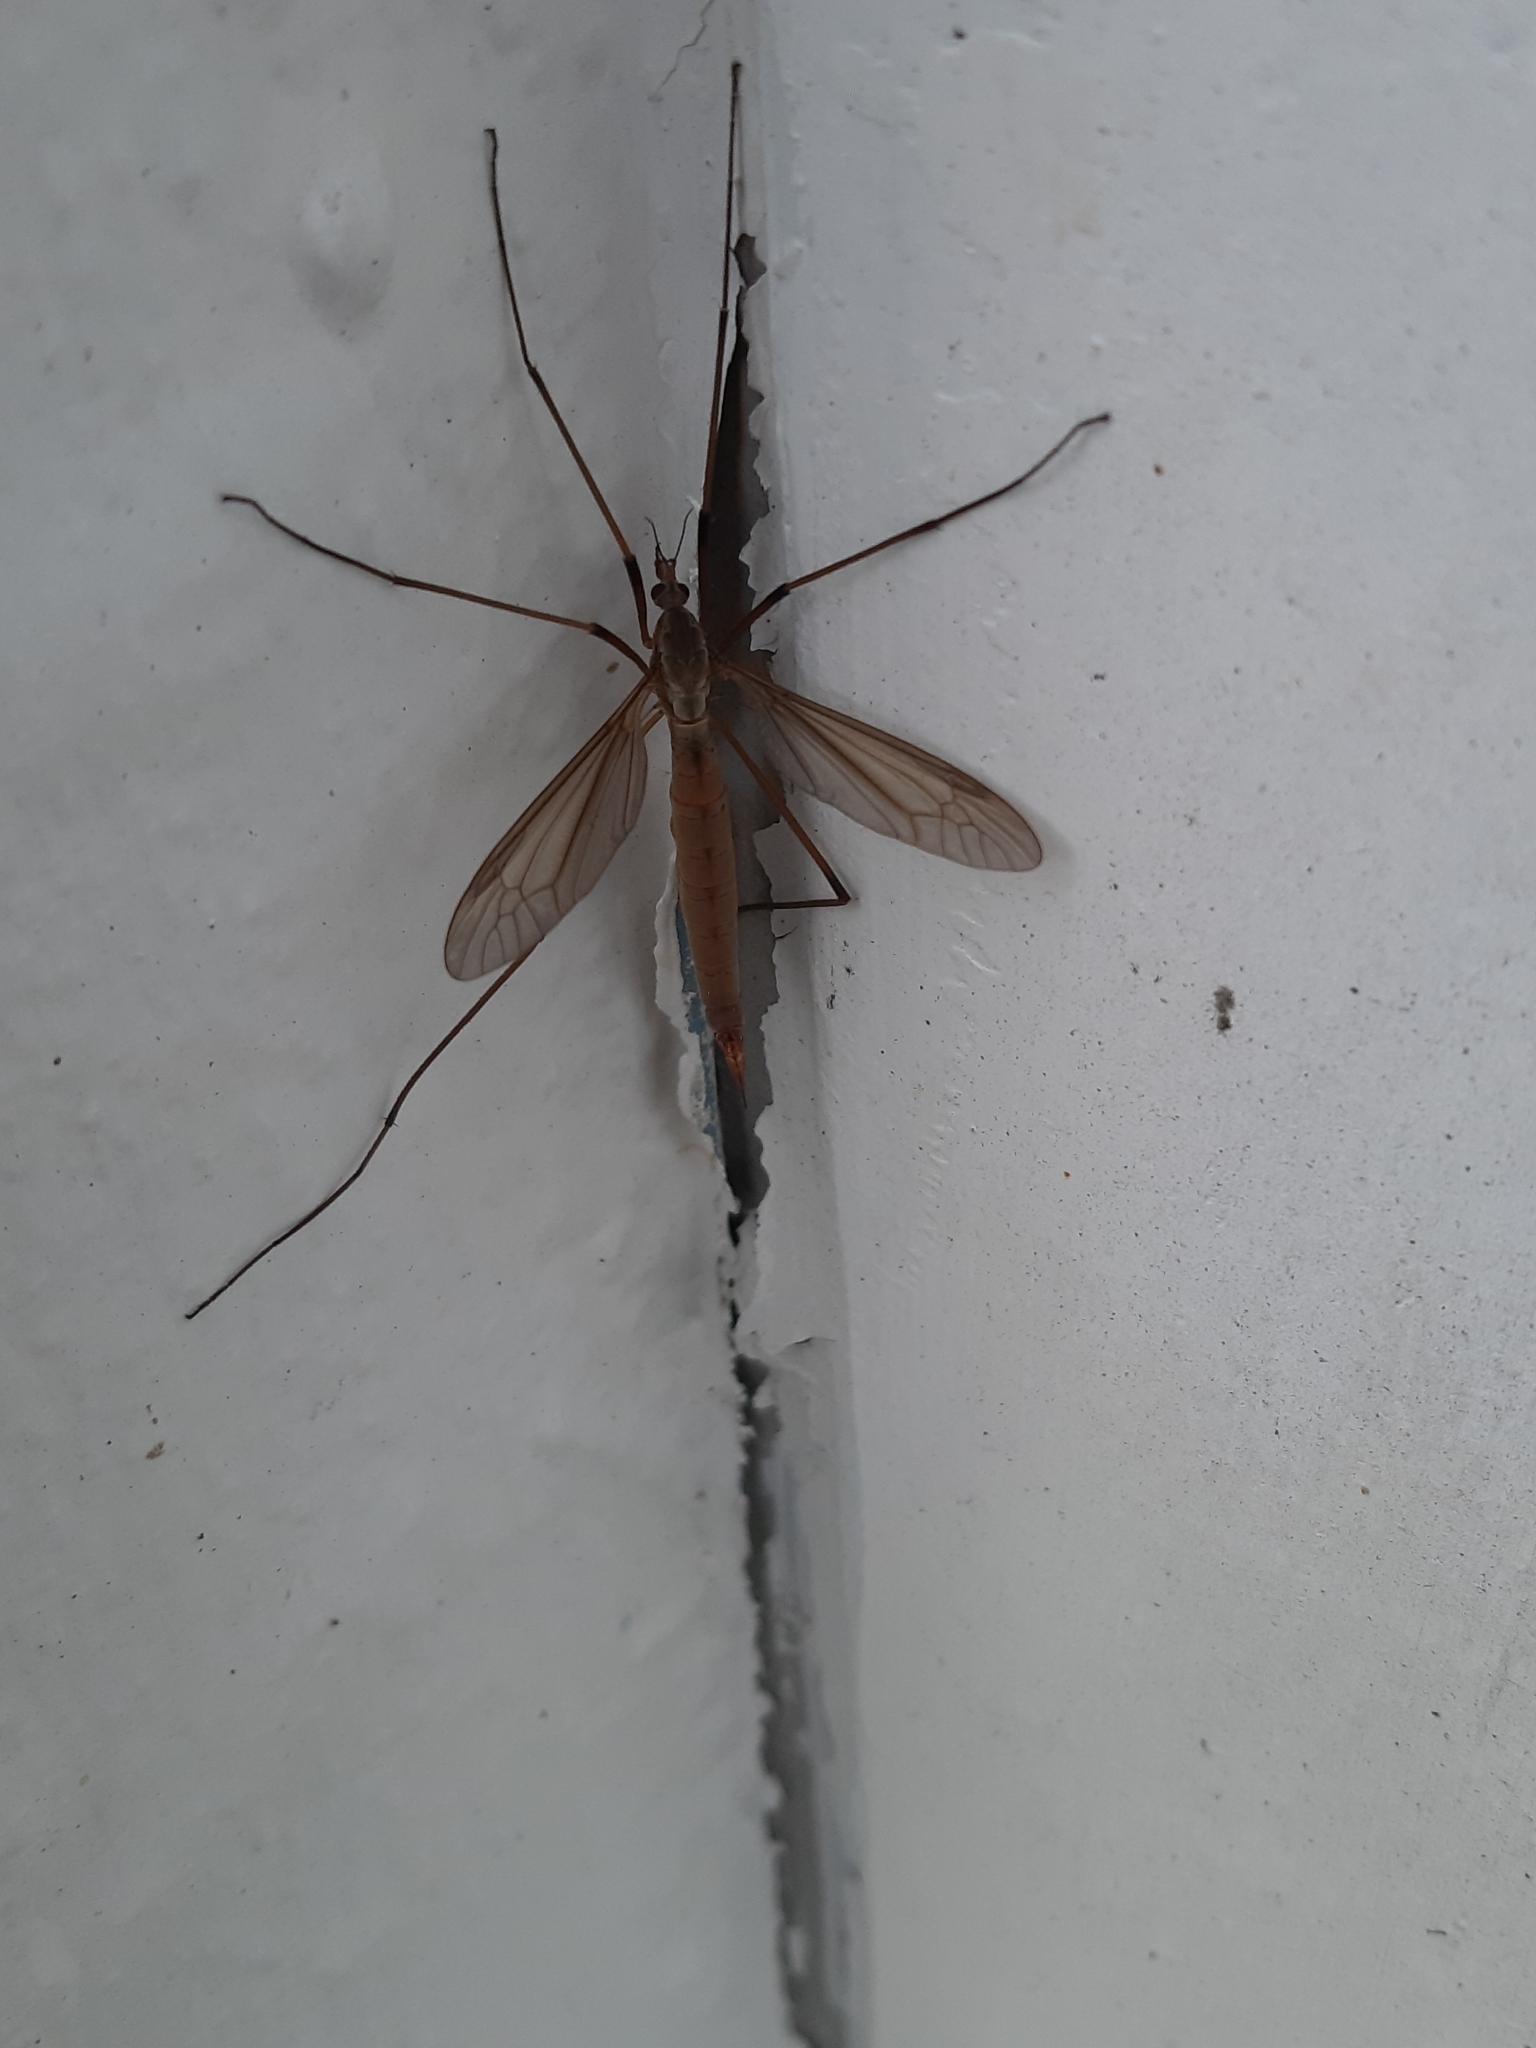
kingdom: Animalia
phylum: Arthropoda
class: Insecta
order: Diptera
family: Tipulidae
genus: Tipula
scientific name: Tipula paludosa
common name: European cranefly
